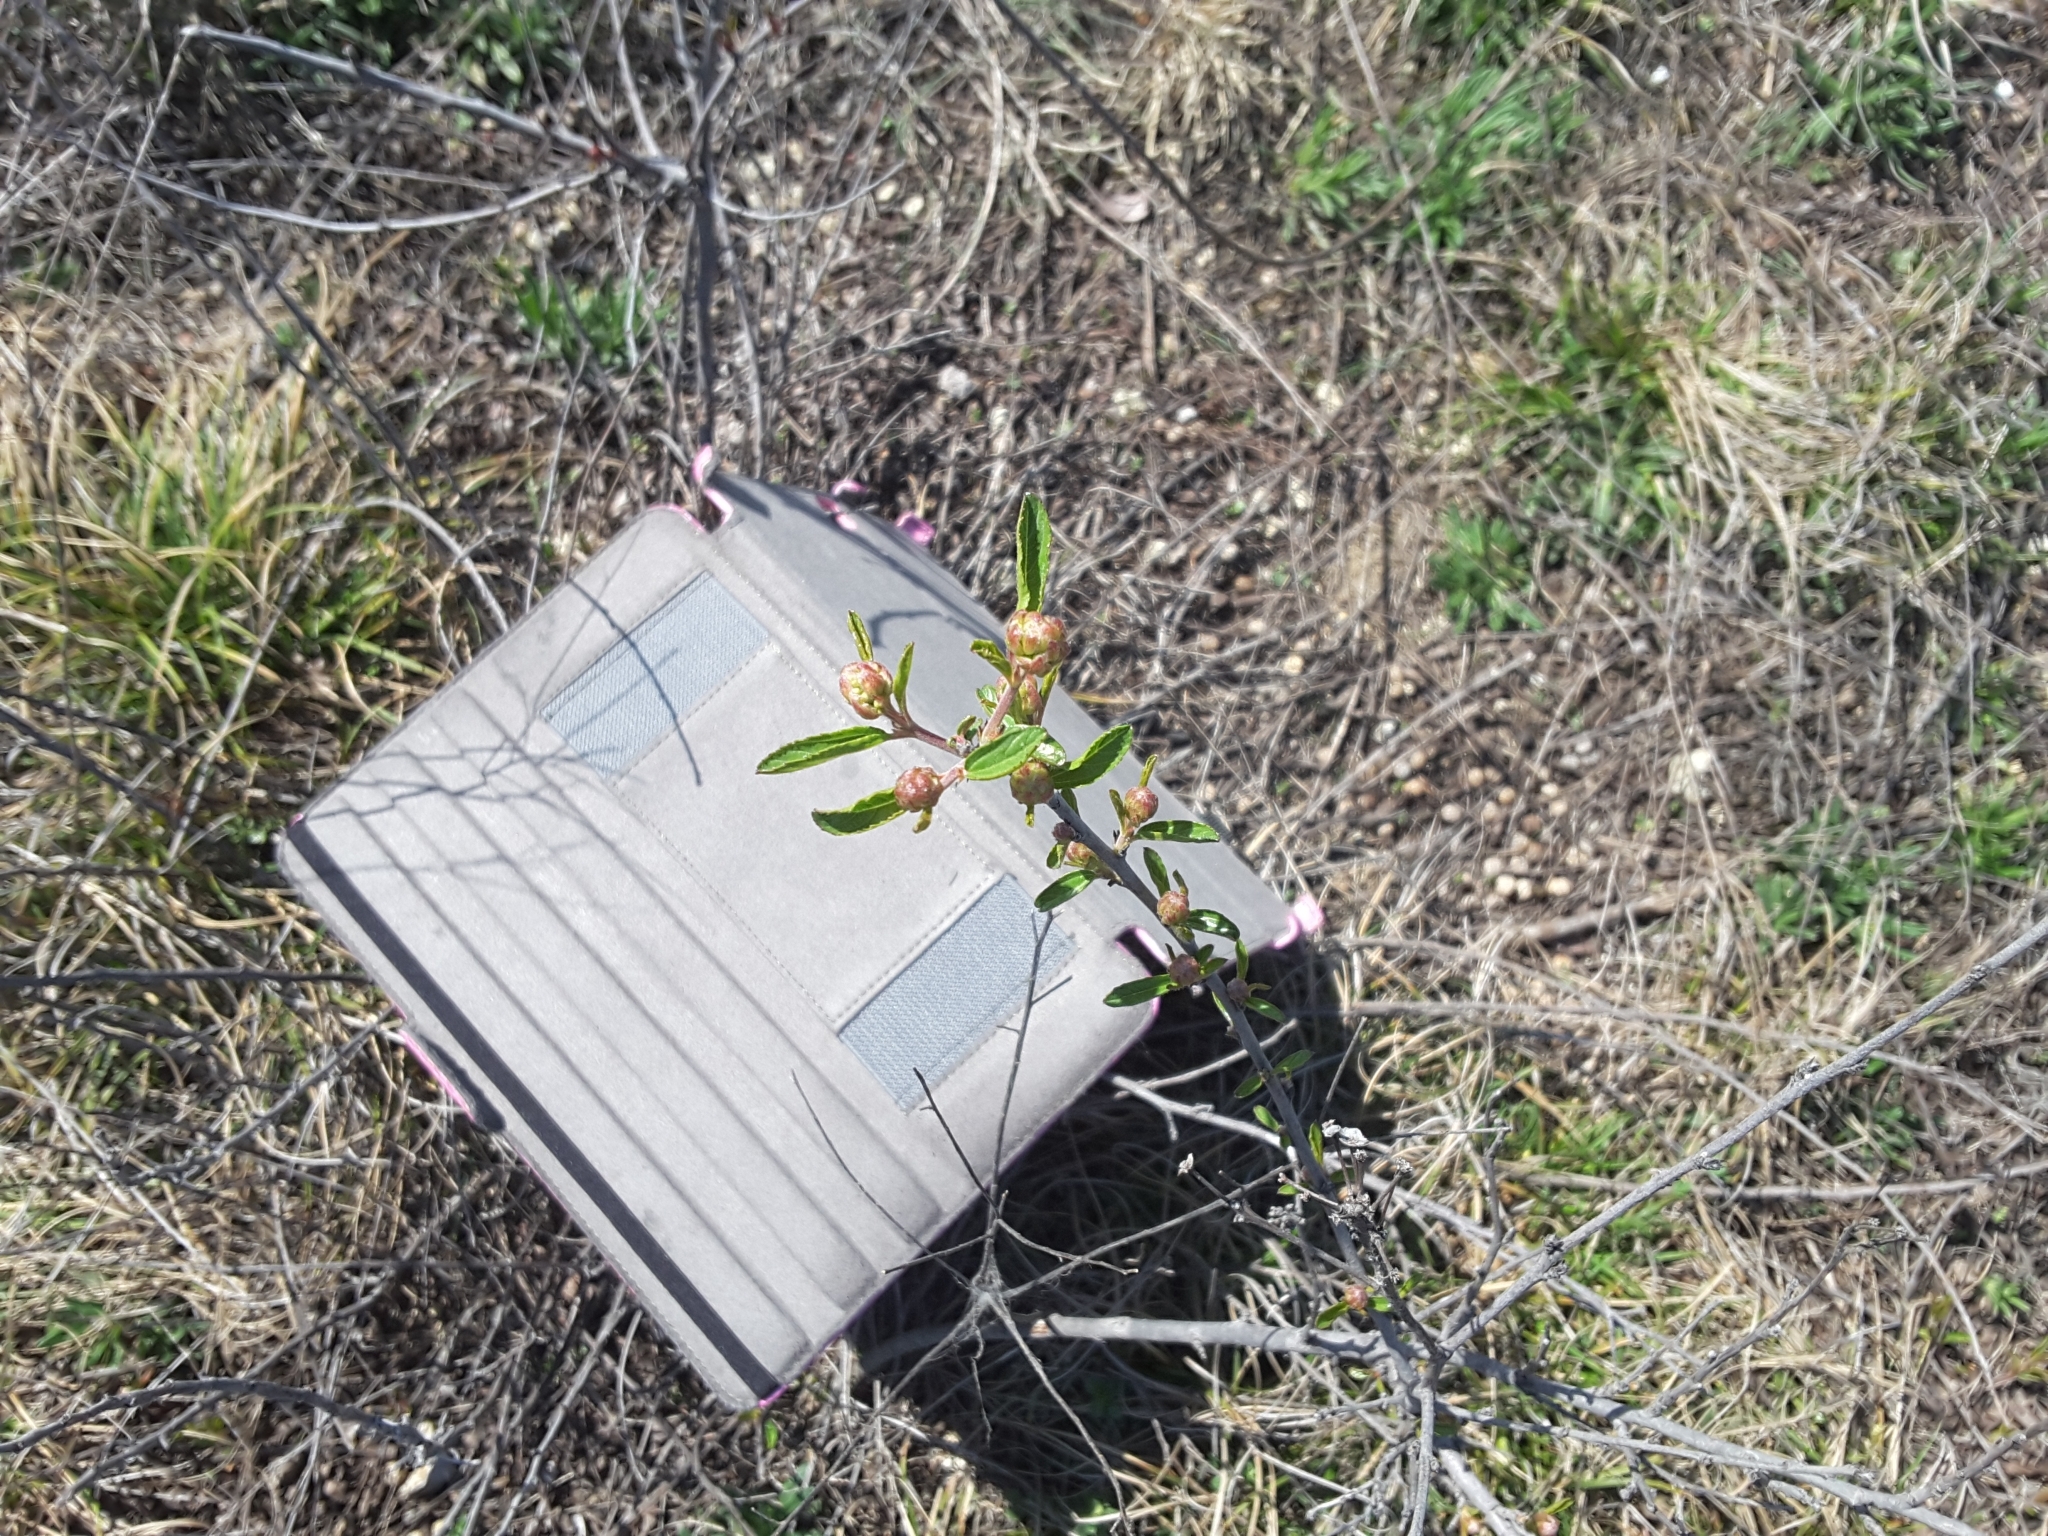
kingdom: Plantae
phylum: Tracheophyta
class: Magnoliopsida
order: Rosales
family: Rhamnaceae
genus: Ceanothus
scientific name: Ceanothus herbaceus
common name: Inland ceanothus
